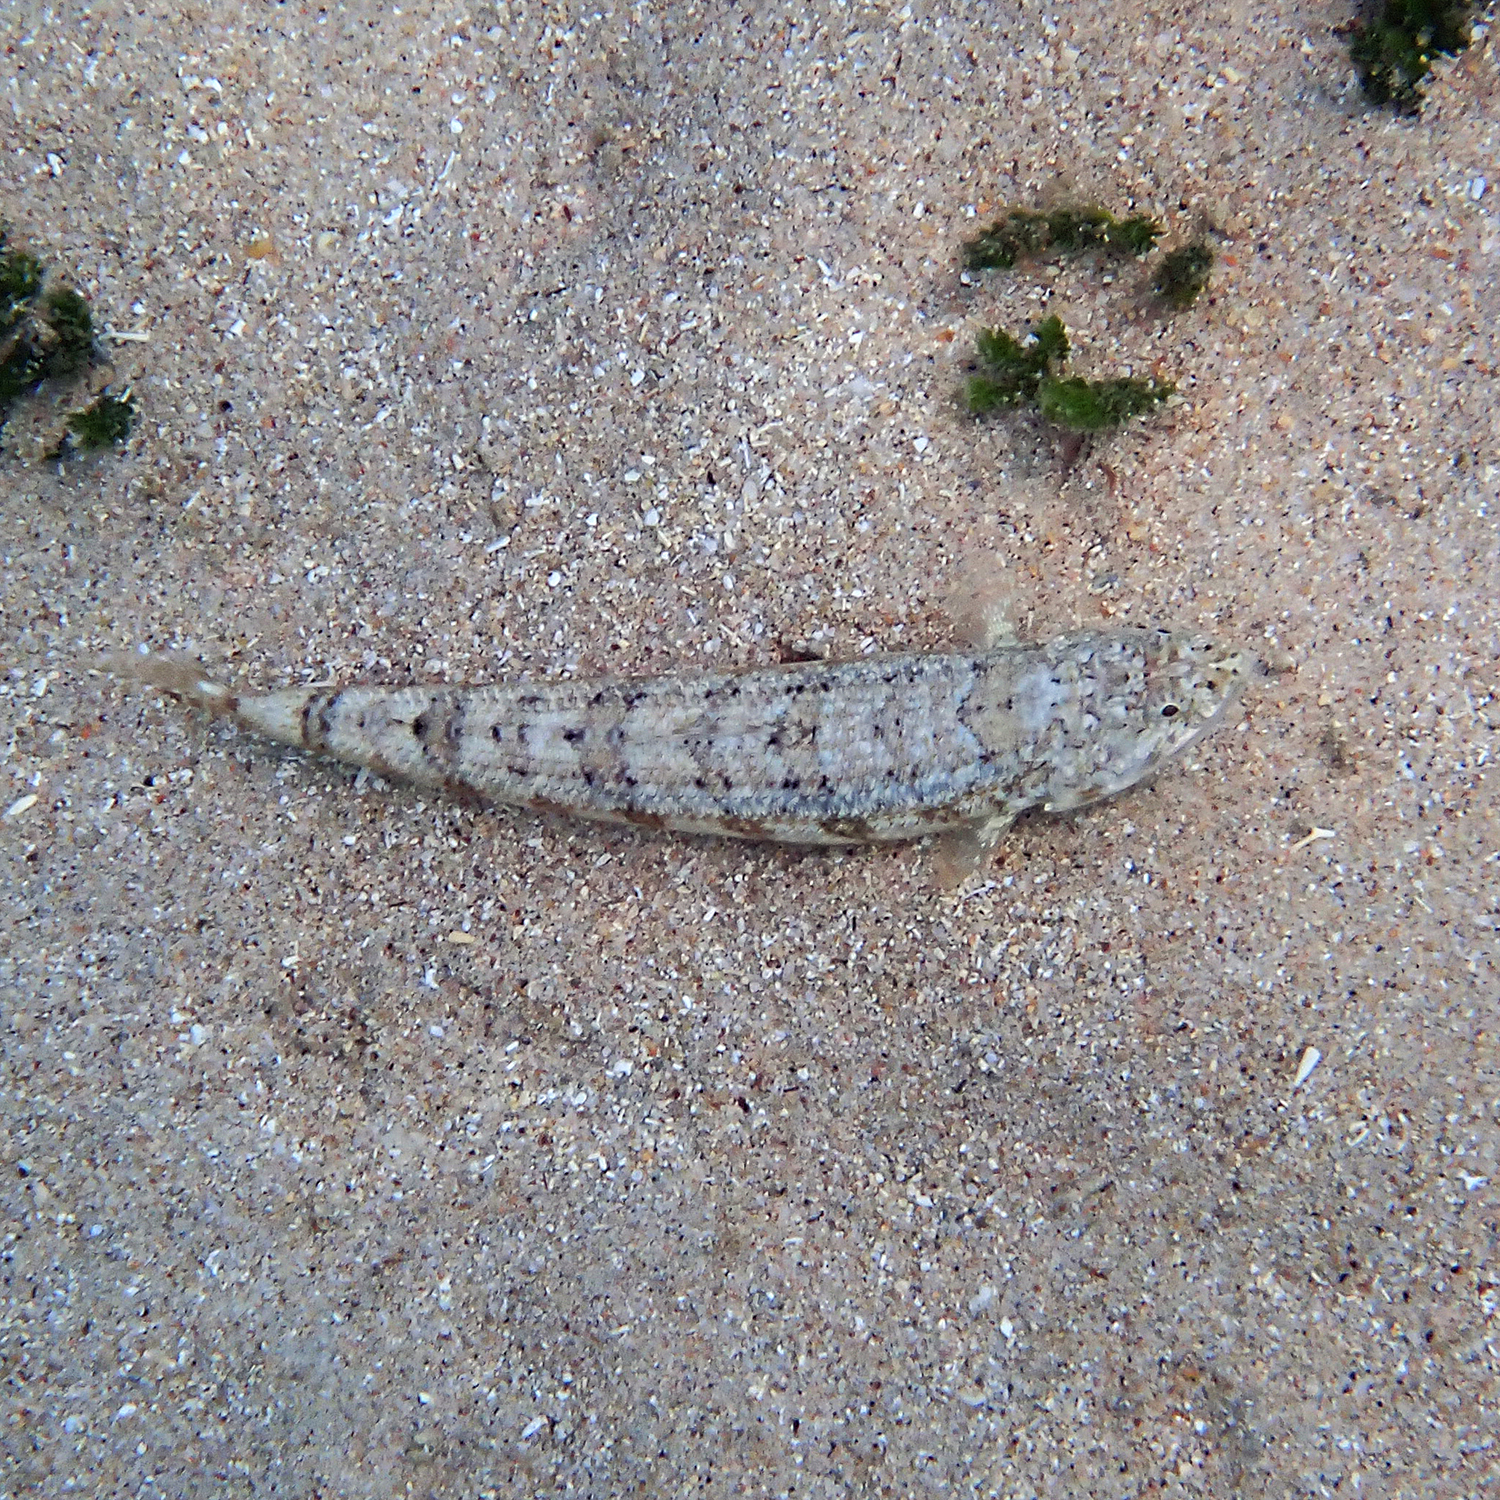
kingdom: Animalia
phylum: Chordata
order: Aulopiformes
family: Synodontidae
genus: Synodus
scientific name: Synodus dermatogenys
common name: Banded lizardfish
